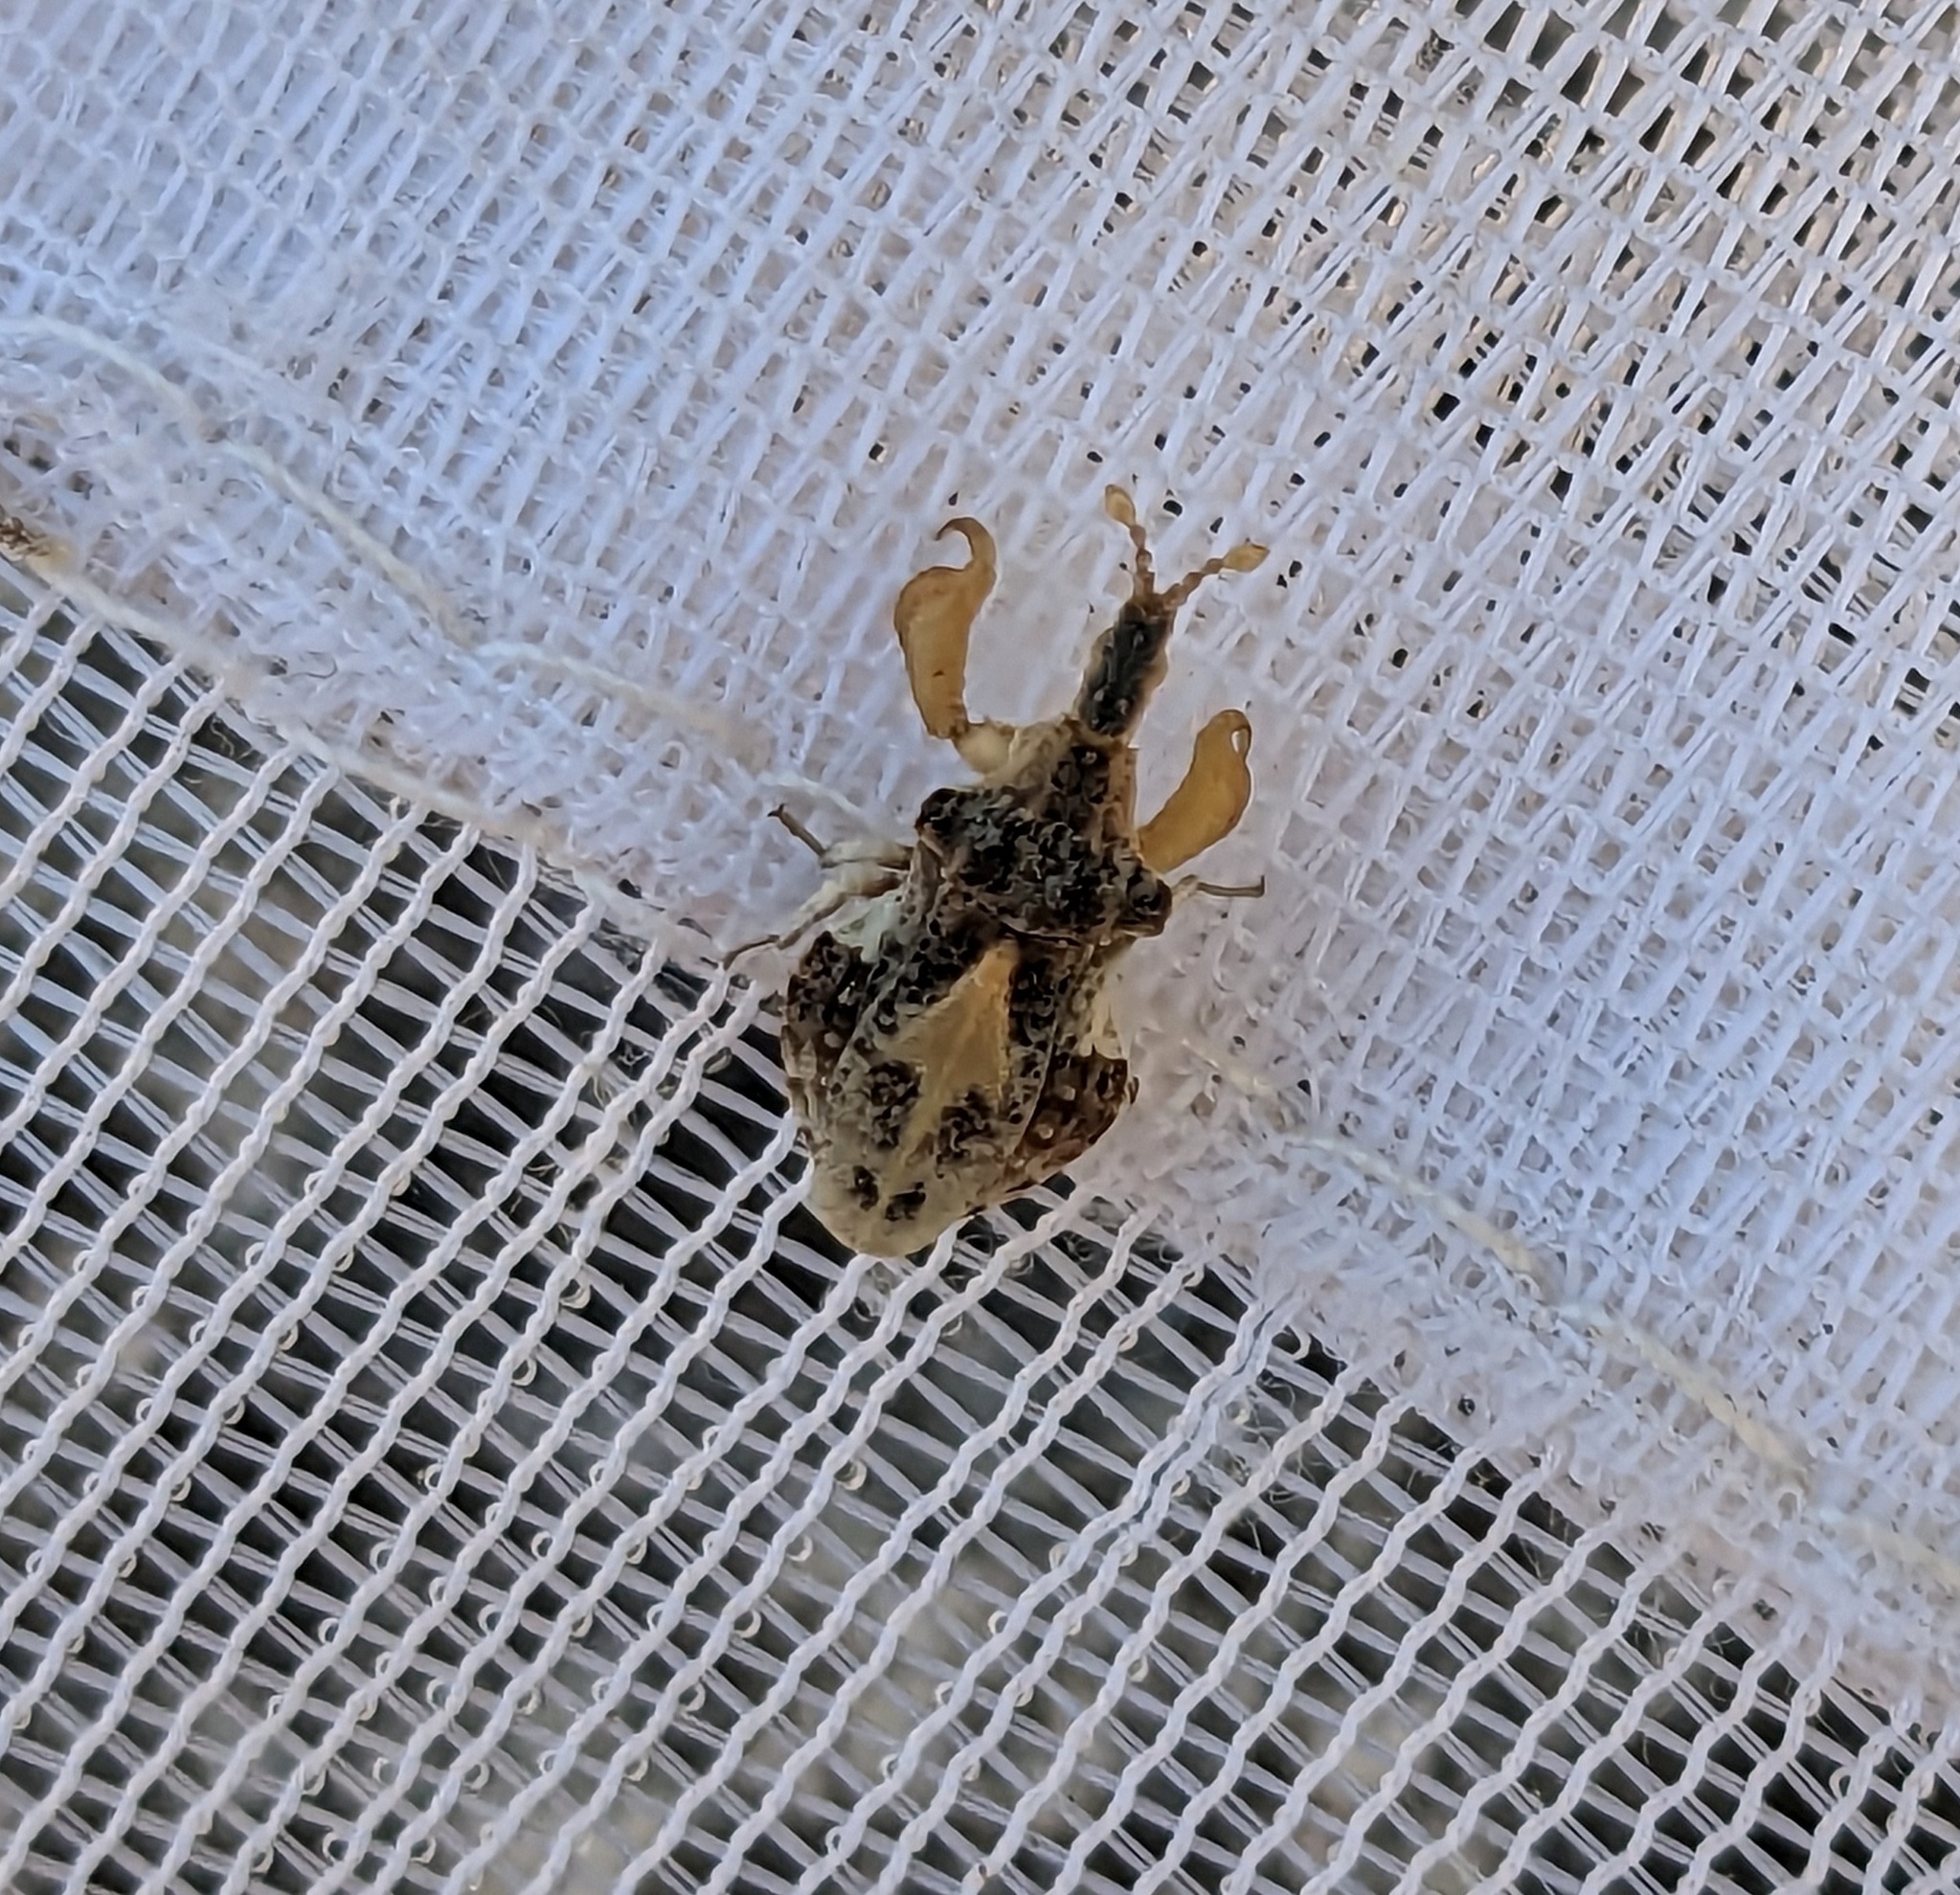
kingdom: Animalia
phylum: Arthropoda
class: Insecta
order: Hemiptera
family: Reduviidae
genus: Macrocephalus
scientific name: Macrocephalus dorannae
